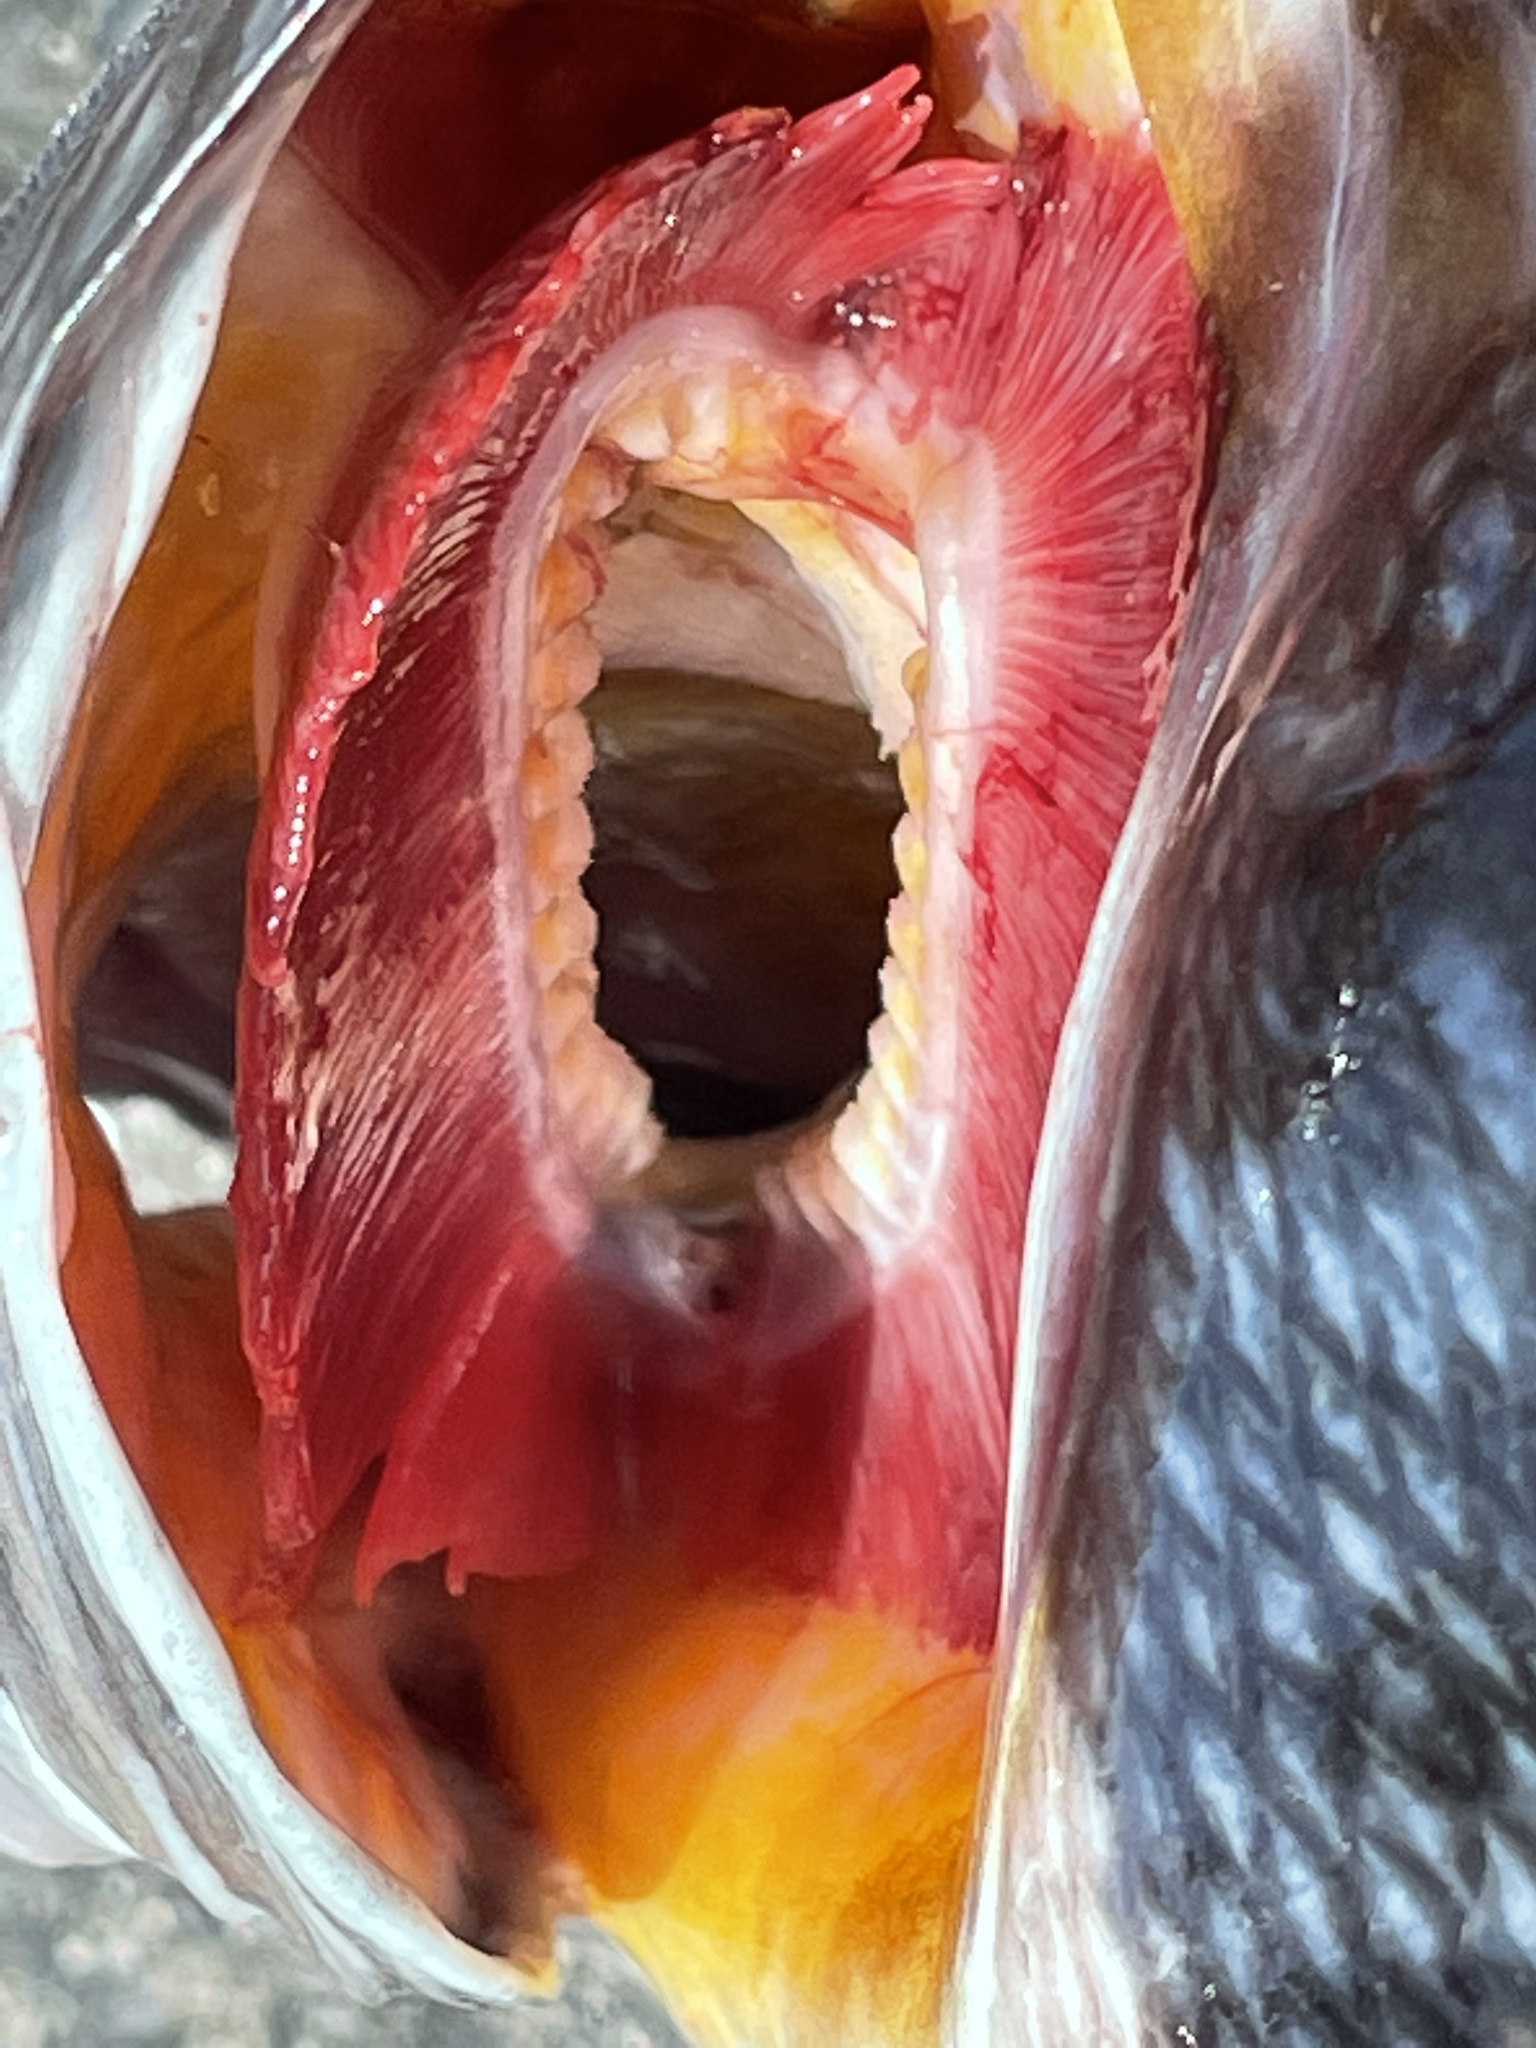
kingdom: Animalia
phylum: Chordata
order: Perciformes
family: Serranidae
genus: Centropristis
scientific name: Centropristis striata
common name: Black sea bass
